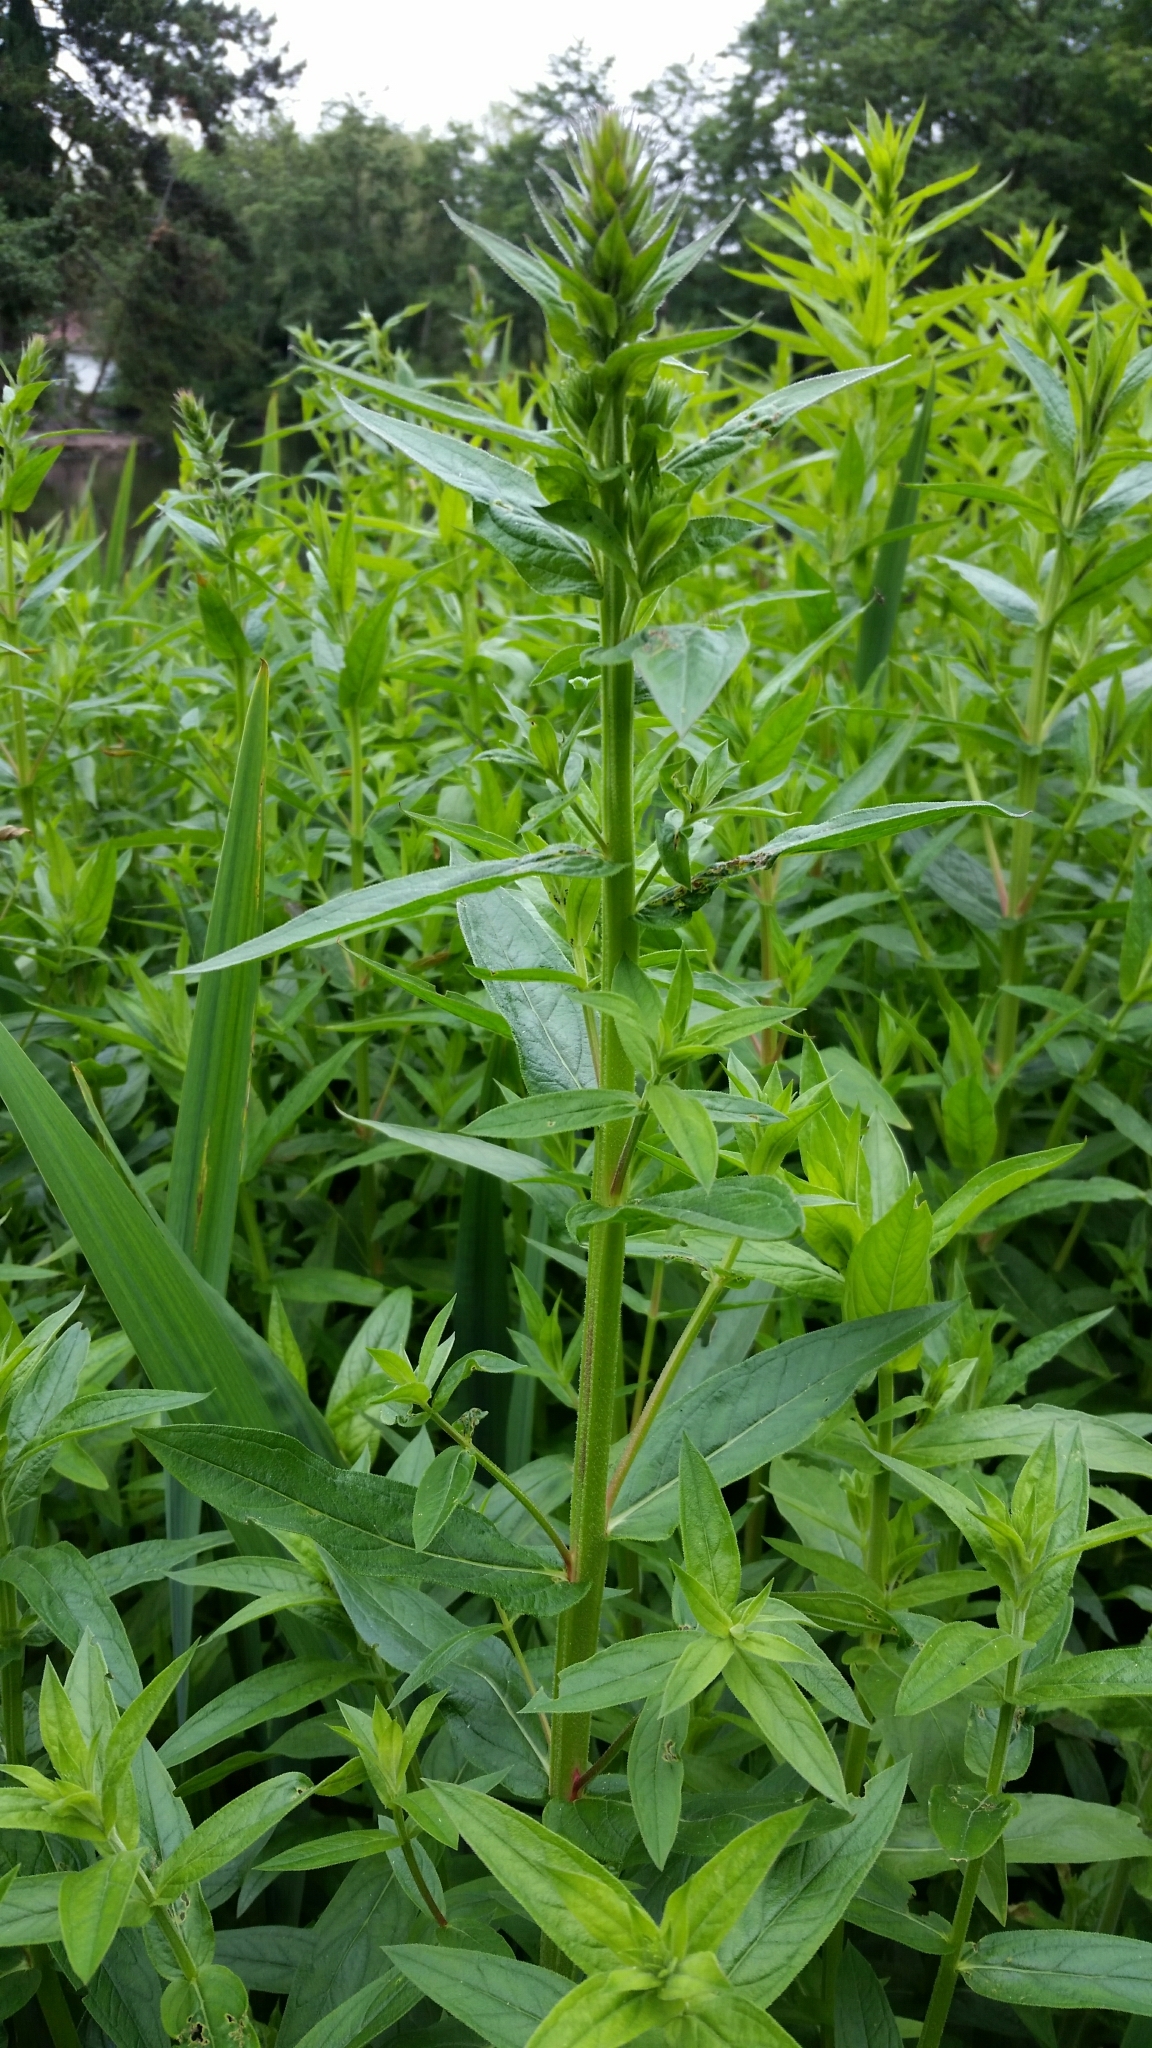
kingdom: Plantae
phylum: Tracheophyta
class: Magnoliopsida
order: Myrtales
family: Lythraceae
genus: Lythrum
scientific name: Lythrum salicaria
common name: Purple loosestrife
